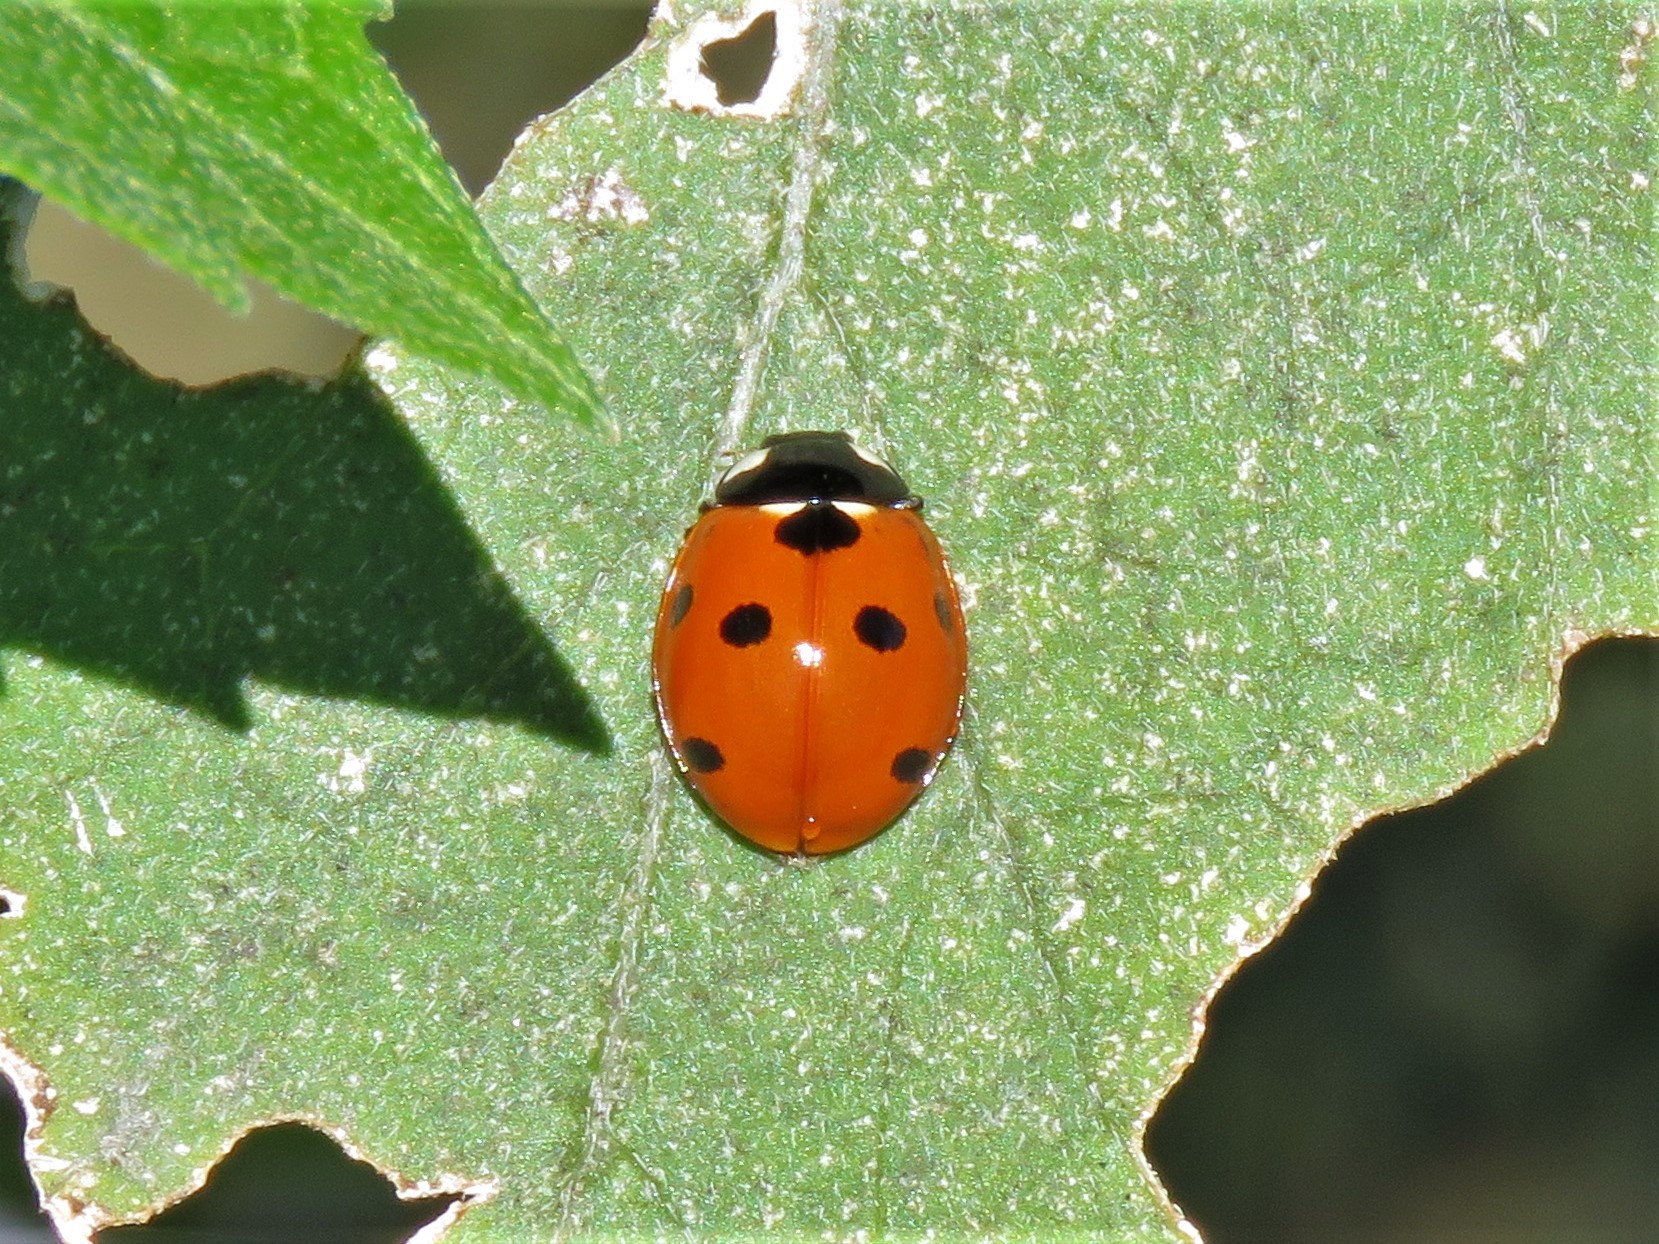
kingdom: Animalia
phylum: Arthropoda
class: Insecta
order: Coleoptera
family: Coccinellidae
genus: Coccinella
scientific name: Coccinella septempunctata
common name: Sevenspotted lady beetle
